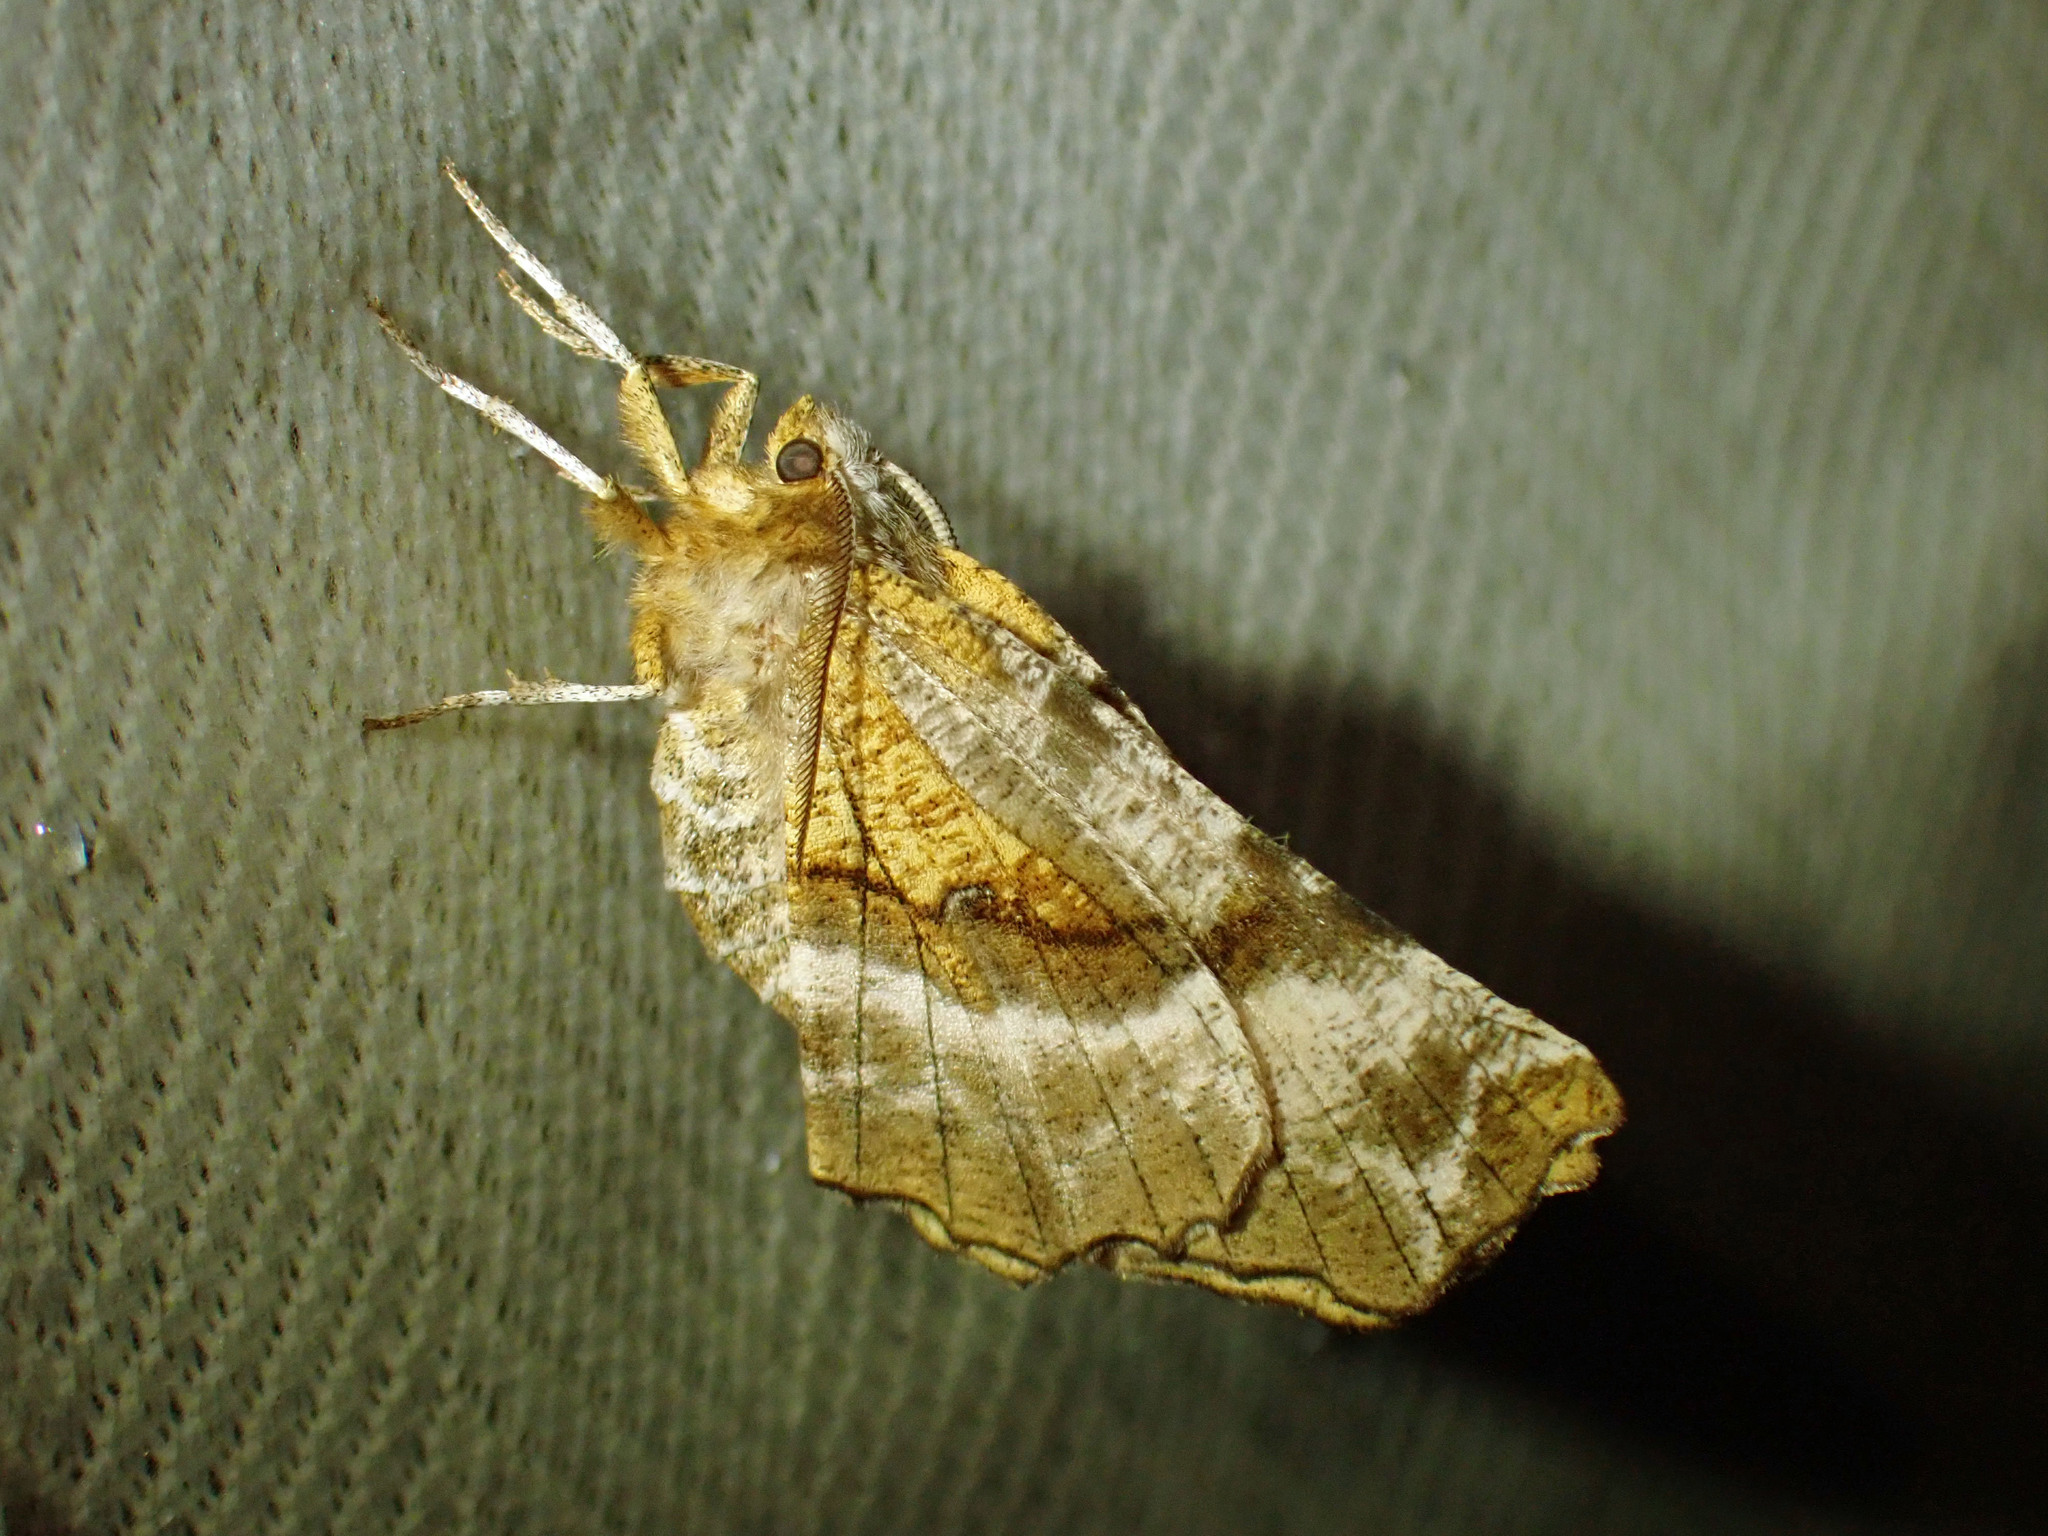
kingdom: Animalia
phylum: Arthropoda
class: Insecta
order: Lepidoptera
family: Geometridae
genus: Selenia
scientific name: Selenia kentaria
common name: Kent's geometer
